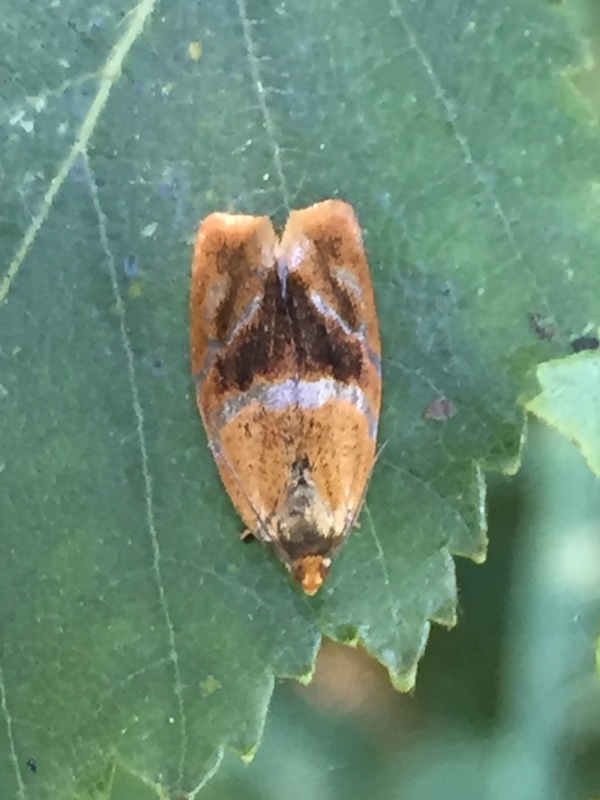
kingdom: Animalia
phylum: Arthropoda
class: Insecta
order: Lepidoptera
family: Tortricidae
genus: Ptycholoma
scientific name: Ptycholoma lecheana
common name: Leches twist moth
